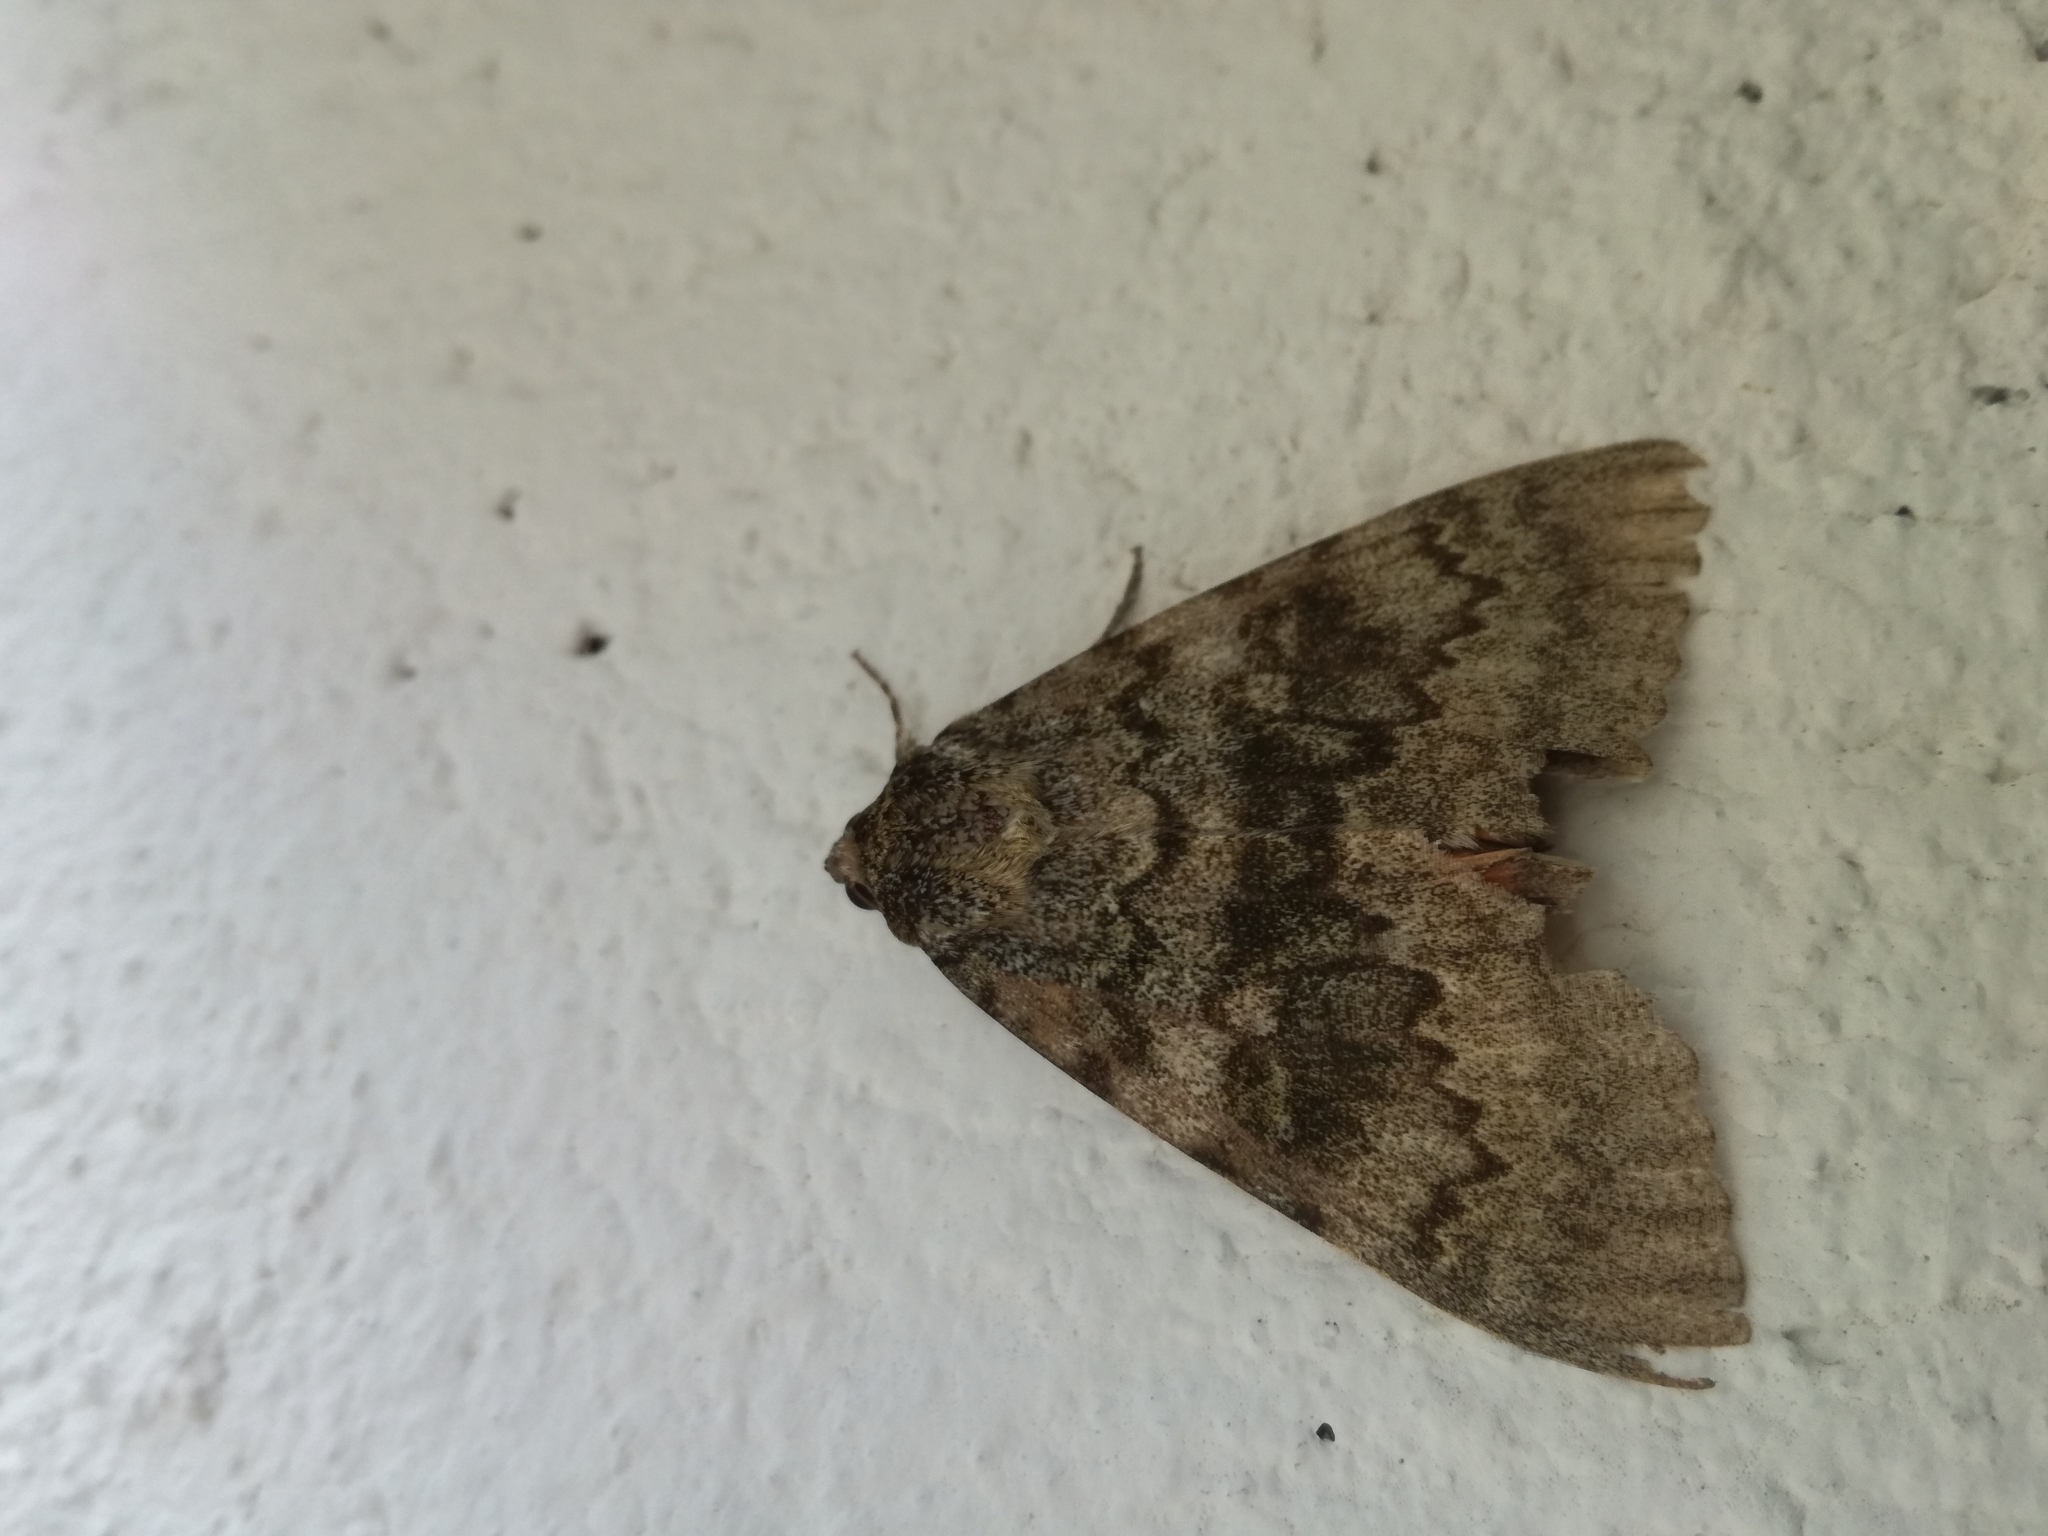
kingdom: Animalia
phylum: Arthropoda
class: Insecta
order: Lepidoptera
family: Erebidae
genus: Catocala
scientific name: Catocala elocata
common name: French red underwing
